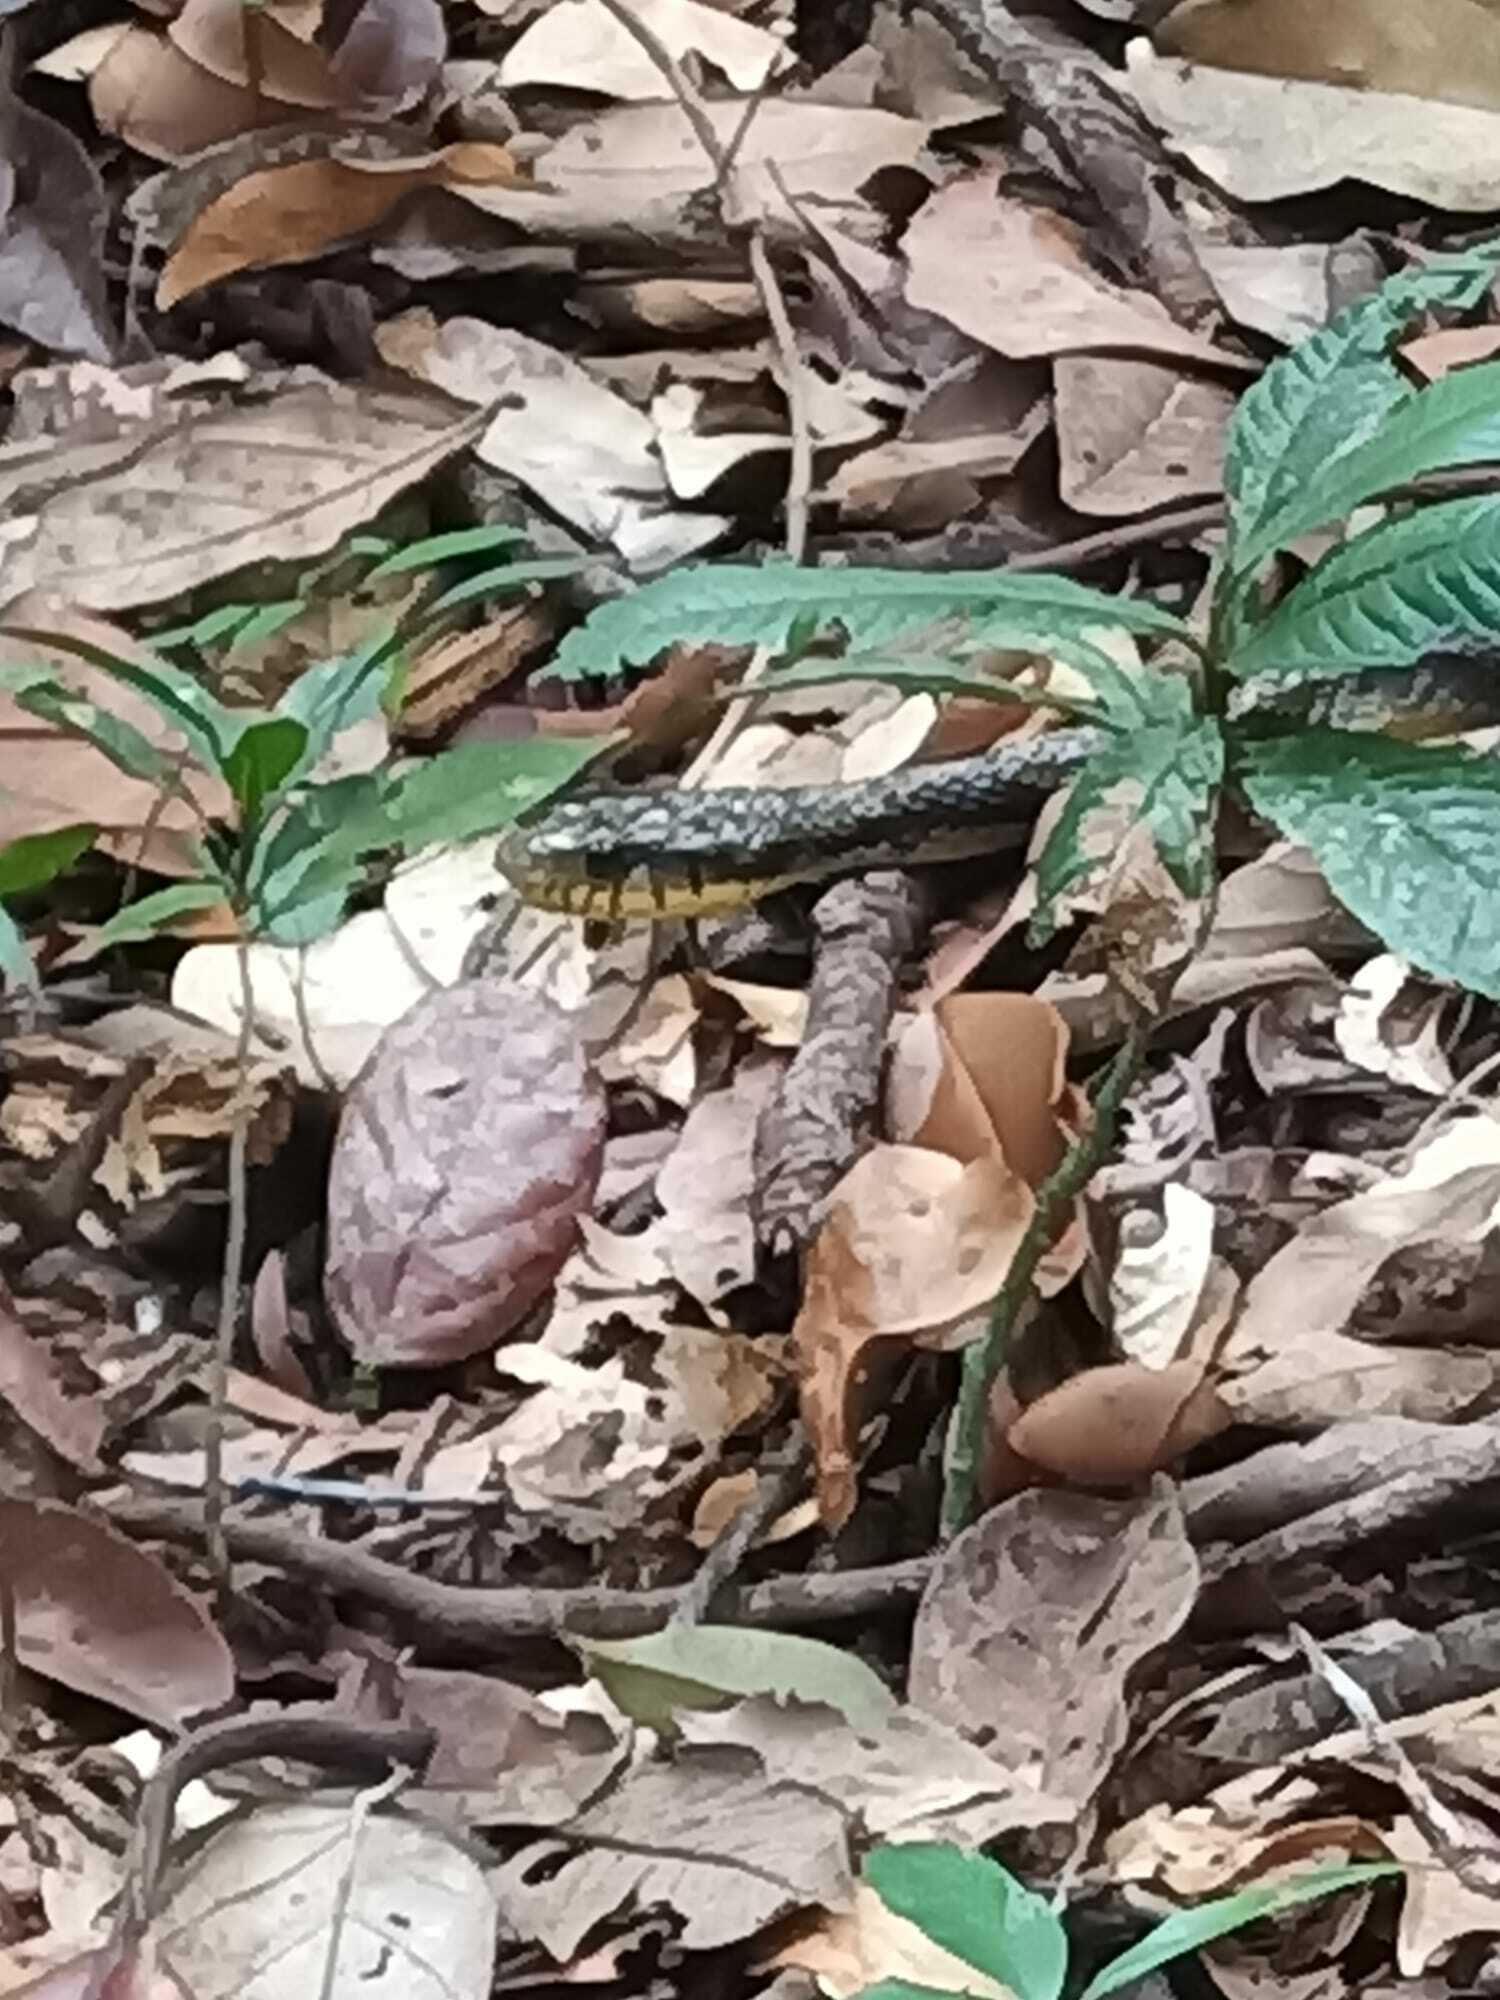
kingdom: Animalia
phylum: Chordata
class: Squamata
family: Colubridae
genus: Spilotes
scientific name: Spilotes sulphureus
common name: Amazon puffing snake
